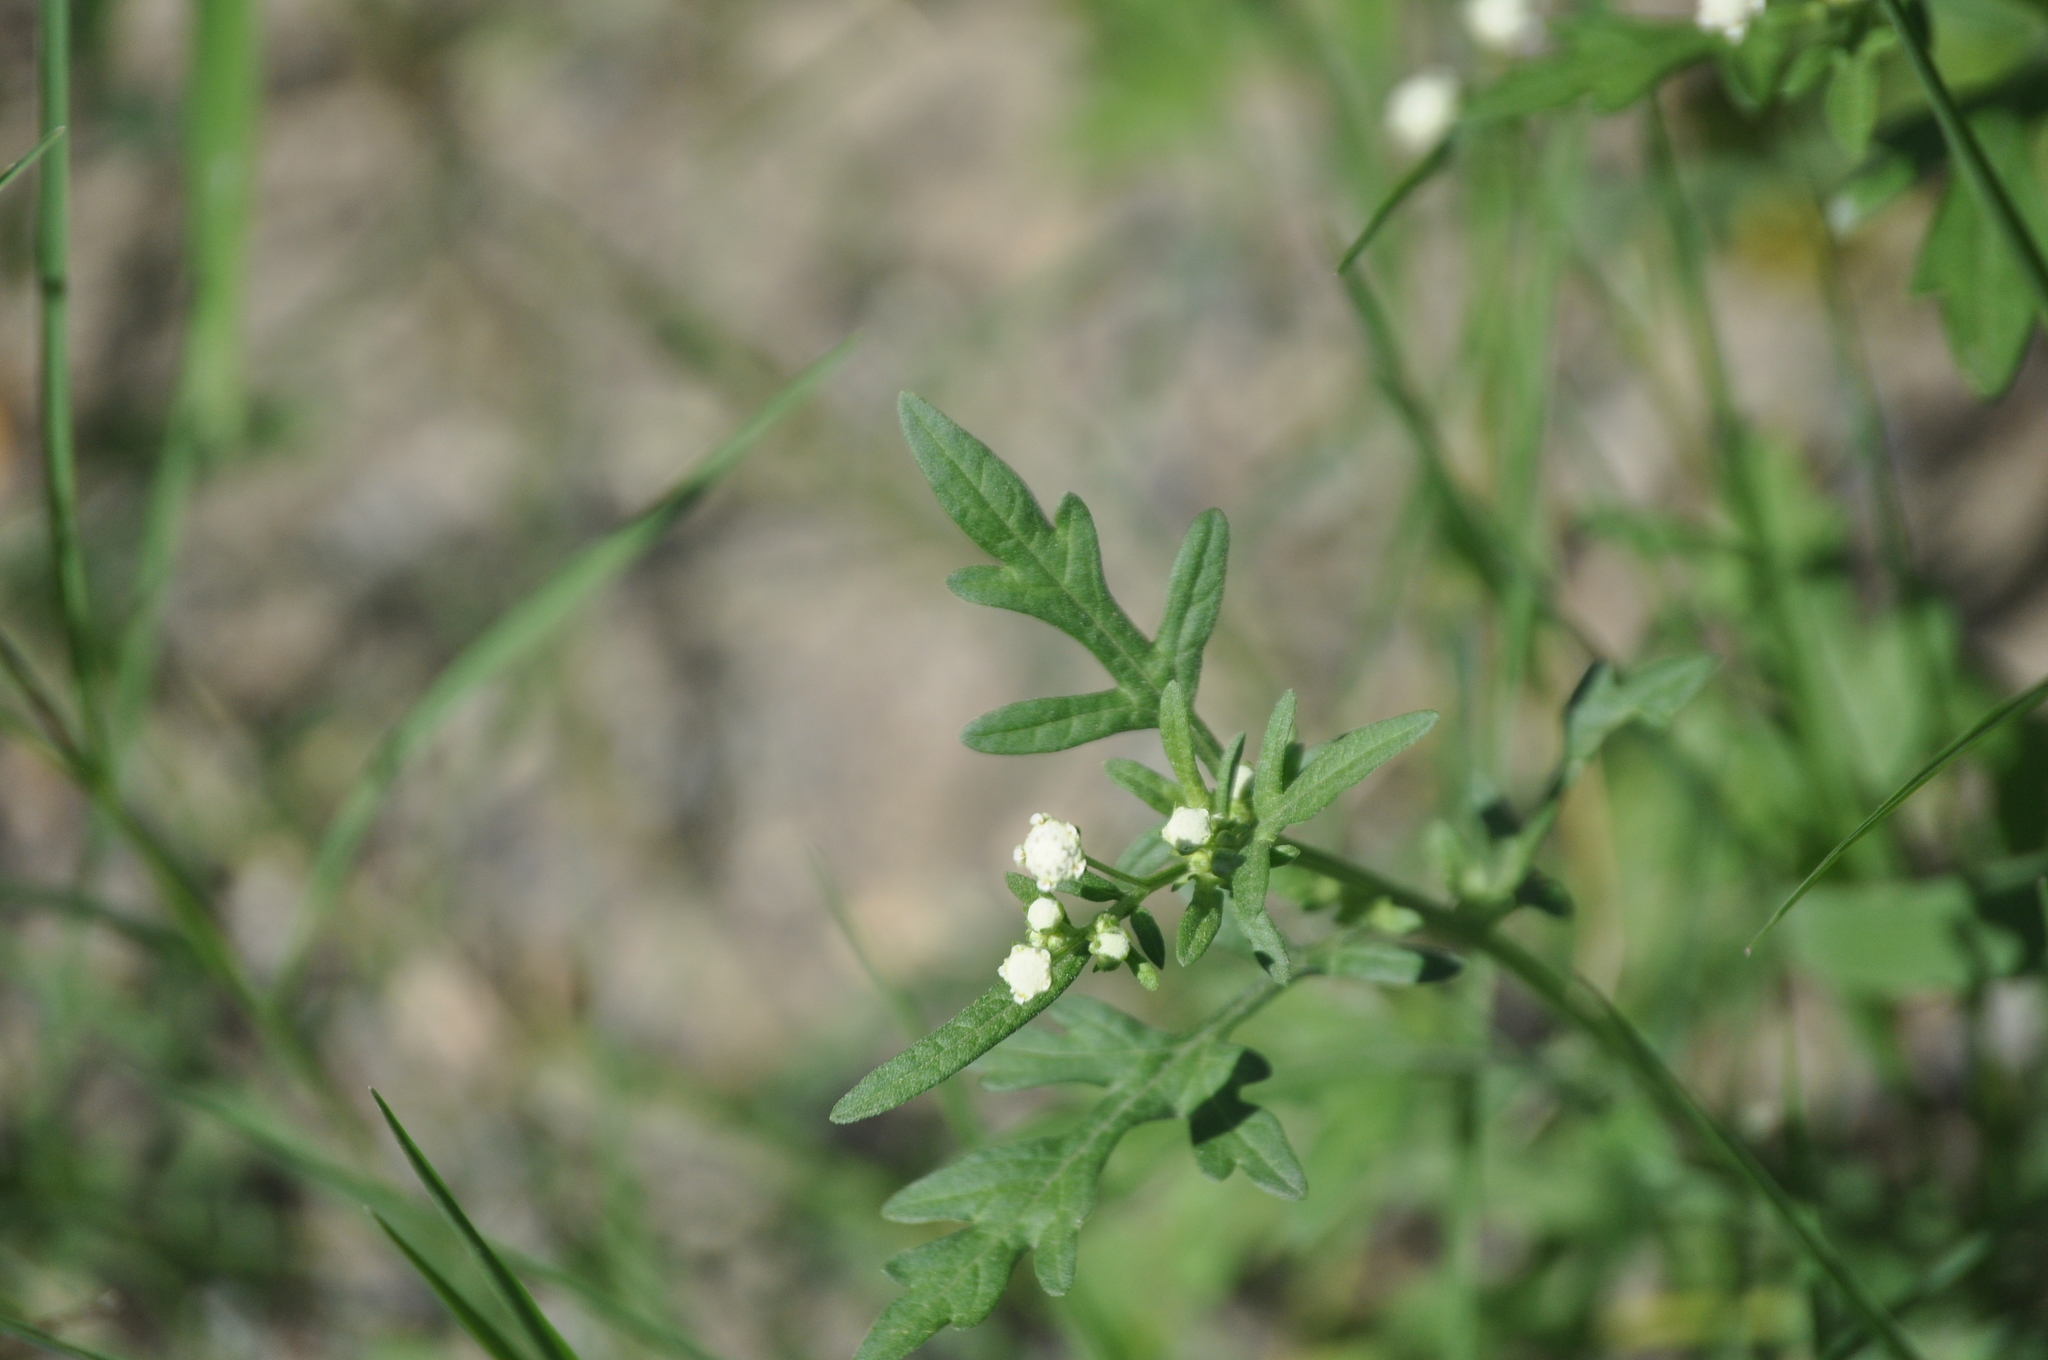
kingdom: Plantae
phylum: Tracheophyta
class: Magnoliopsida
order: Asterales
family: Asteraceae
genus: Parthenium
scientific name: Parthenium hysterophorus
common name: Santa maria feverfew
